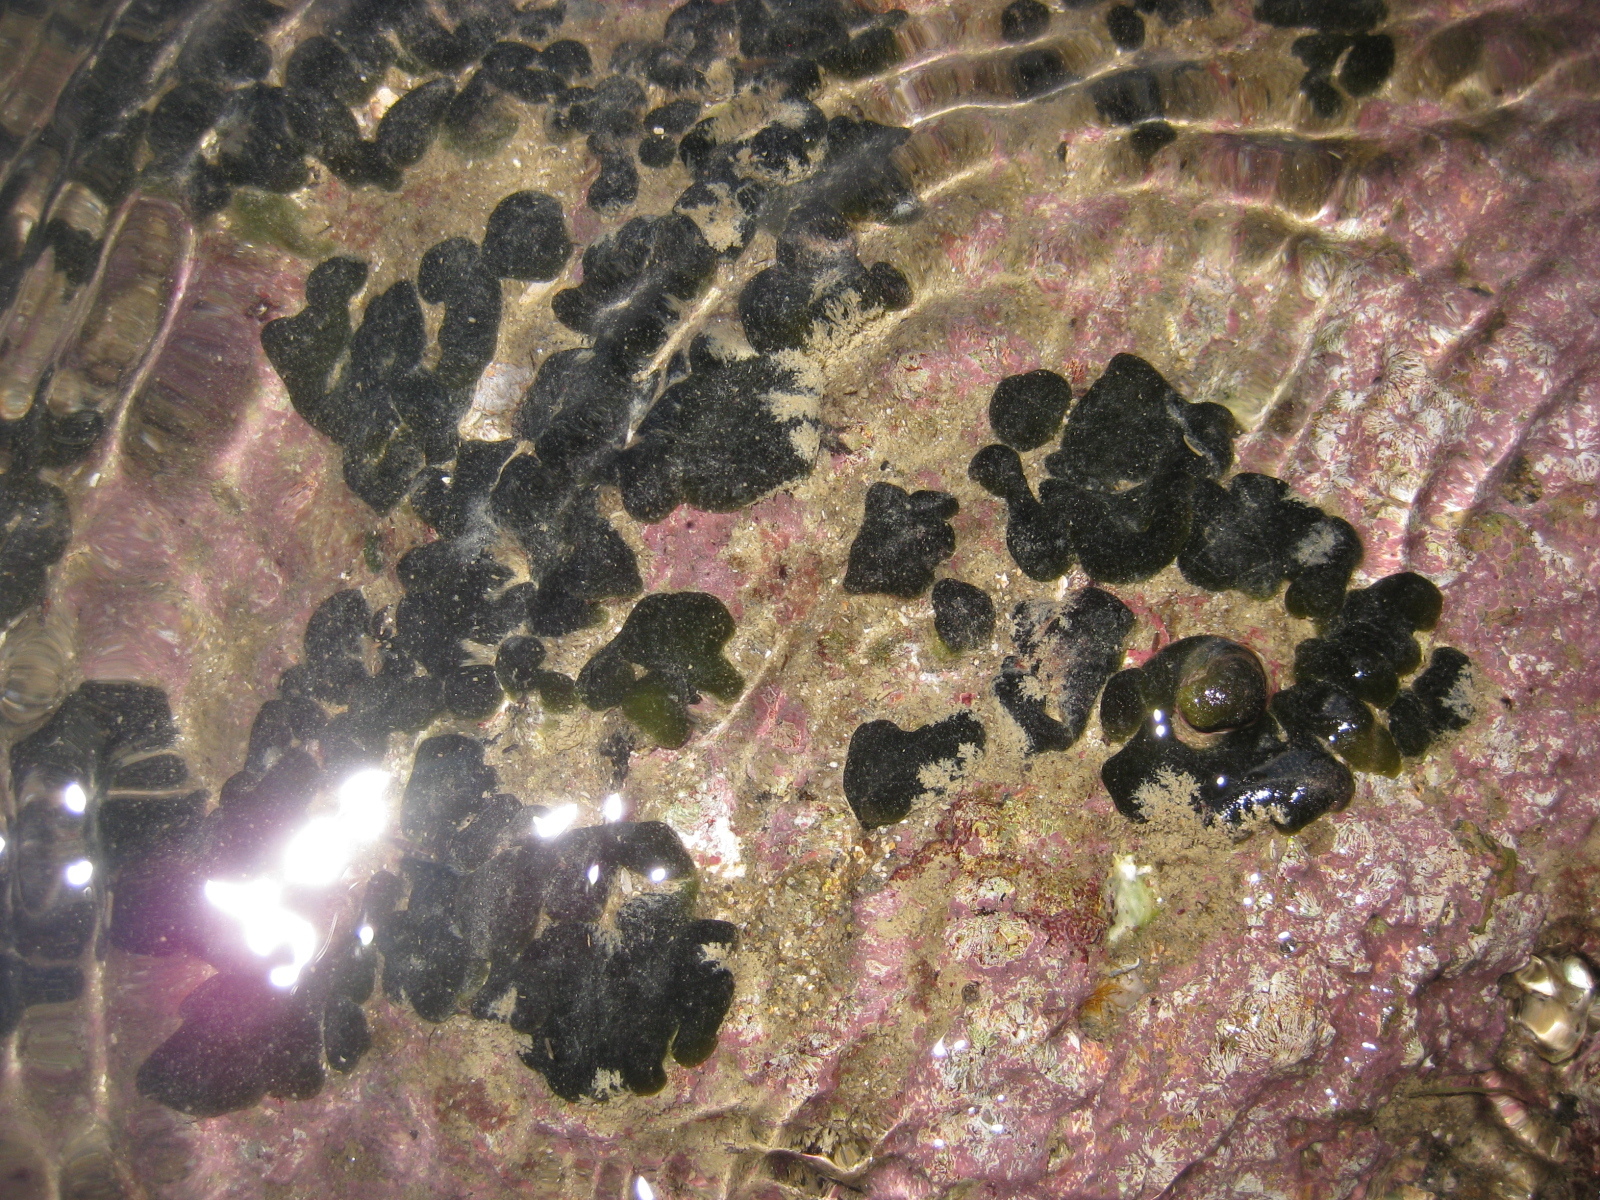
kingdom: Plantae
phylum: Chlorophyta
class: Ulvophyceae
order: Bryopsidales
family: Codiaceae
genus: Codium
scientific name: Codium convolutum
